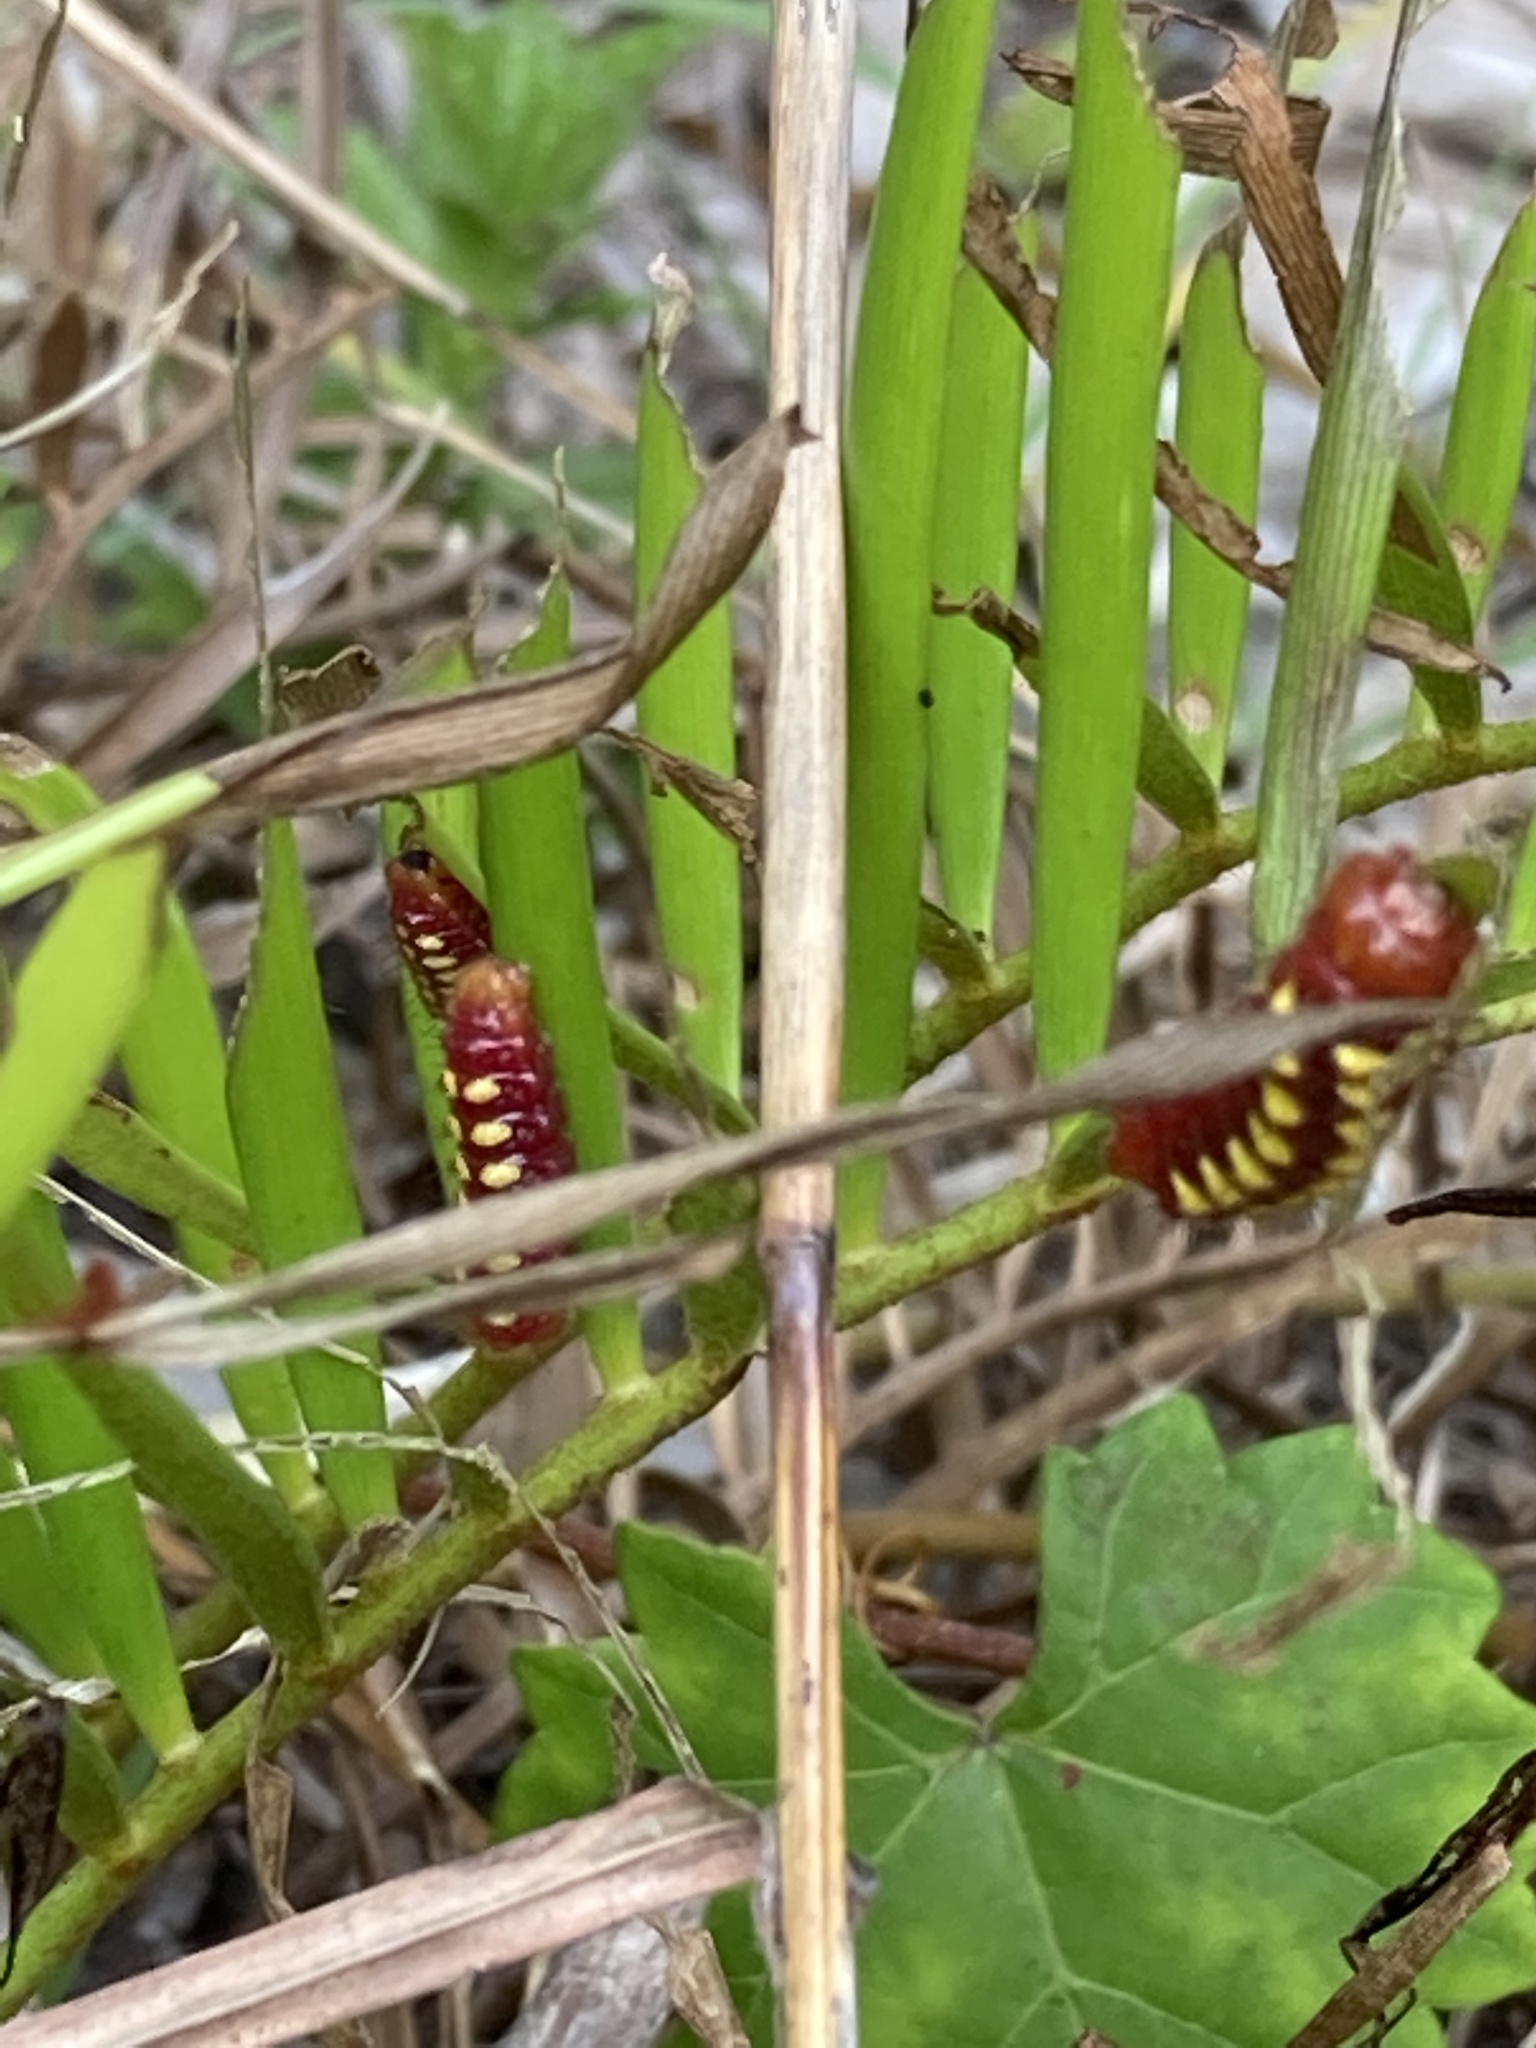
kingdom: Animalia
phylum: Arthropoda
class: Insecta
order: Lepidoptera
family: Lycaenidae
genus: Eumaeus
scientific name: Eumaeus atala
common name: Atala
